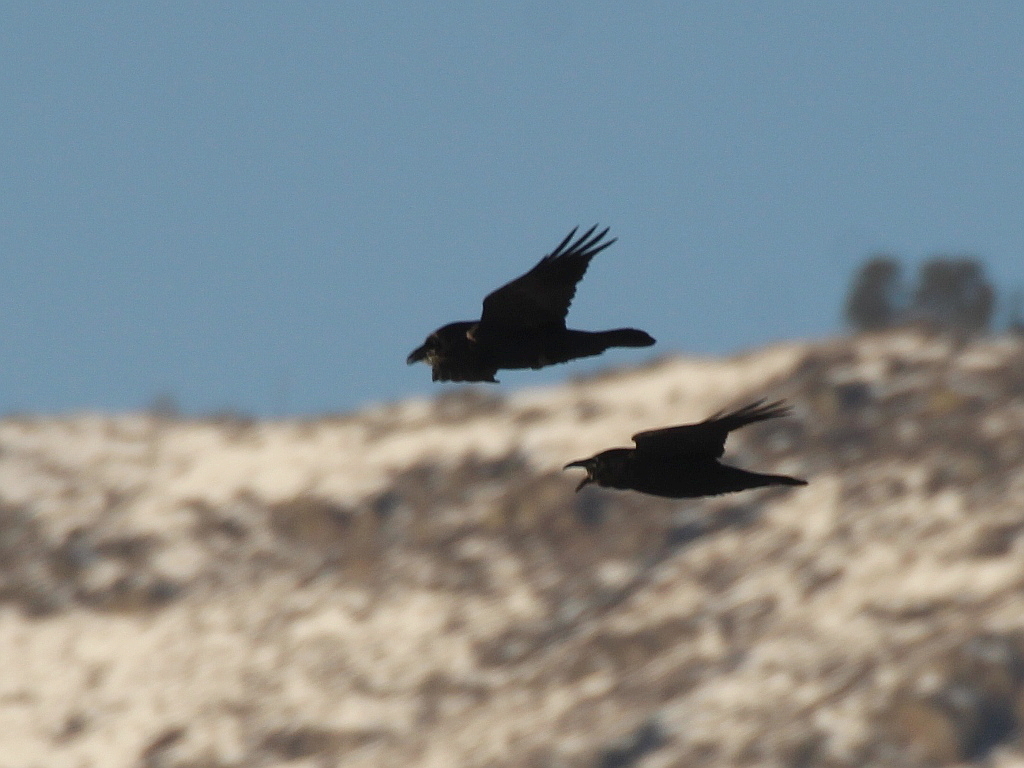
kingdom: Animalia
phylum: Chordata
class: Aves
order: Passeriformes
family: Corvidae
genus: Corvus
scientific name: Corvus corax
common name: Common raven
